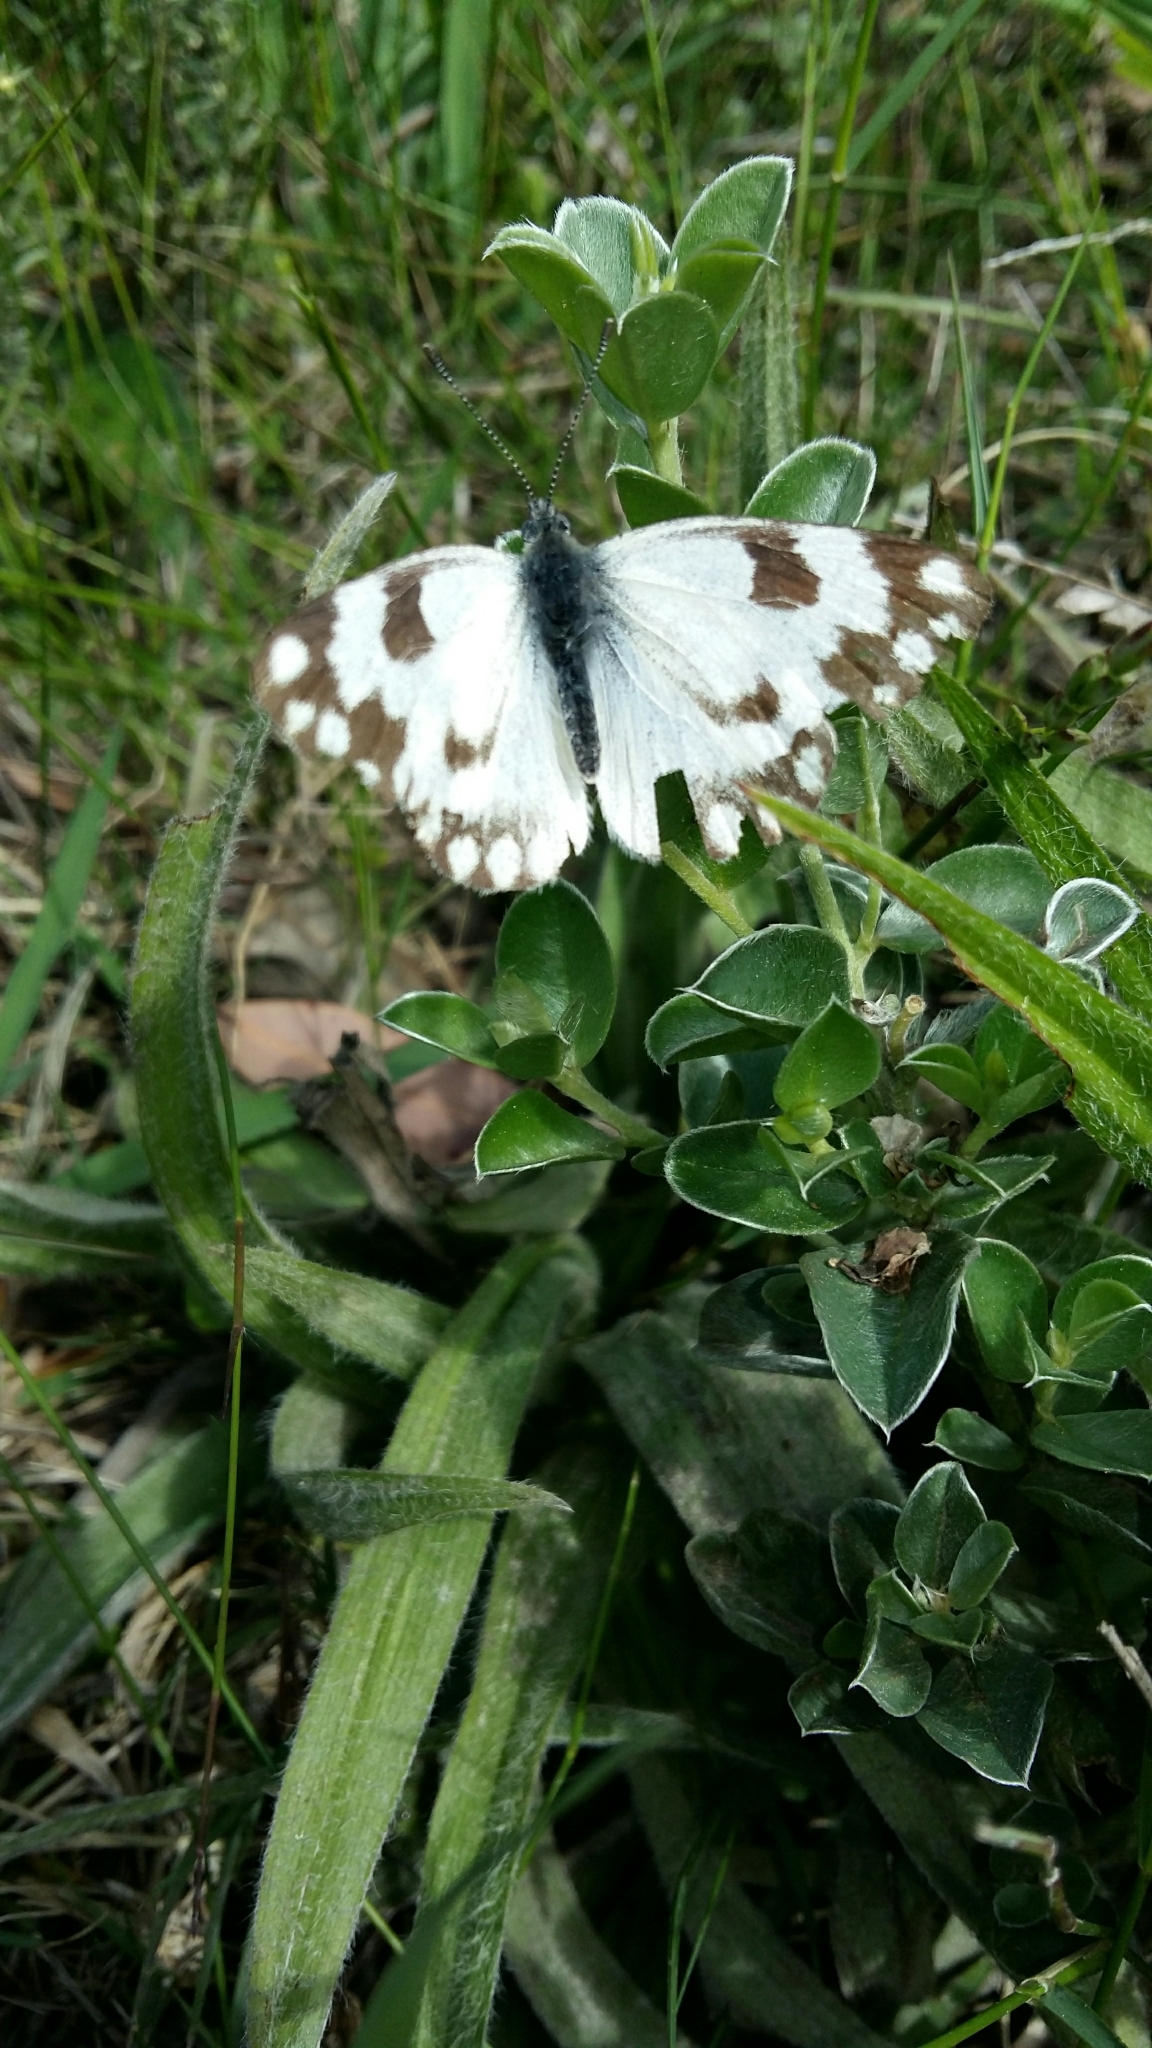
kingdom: Animalia
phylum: Arthropoda
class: Insecta
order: Lepidoptera
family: Pieridae
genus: Pontia
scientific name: Pontia helice
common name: Meadow white
